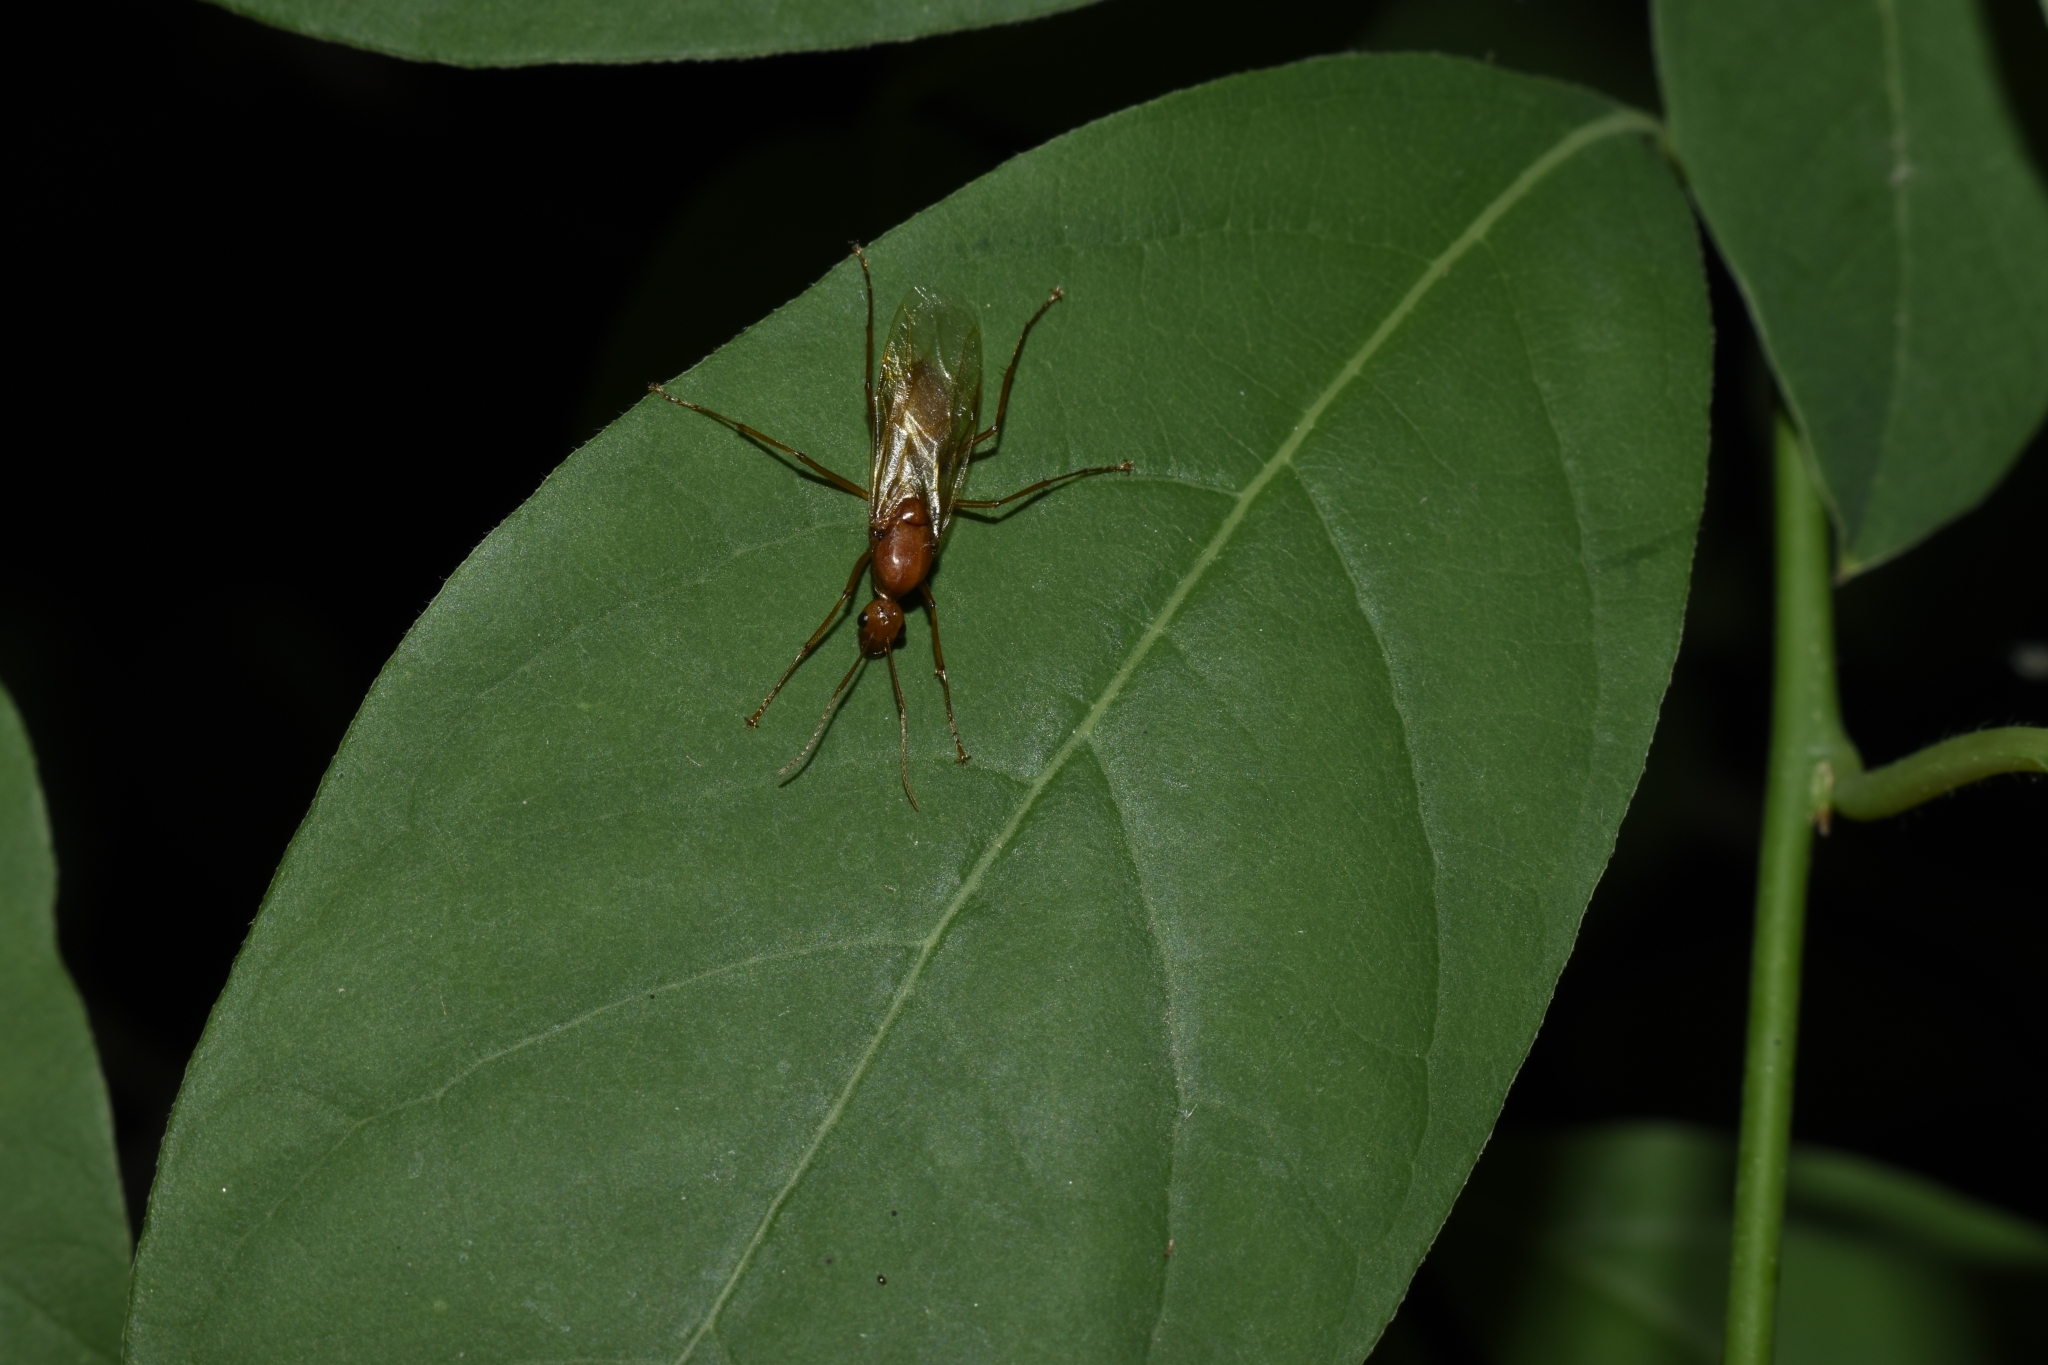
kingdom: Animalia
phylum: Arthropoda
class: Insecta
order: Hymenoptera
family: Formicidae
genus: Camponotus
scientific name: Camponotus castaneus
